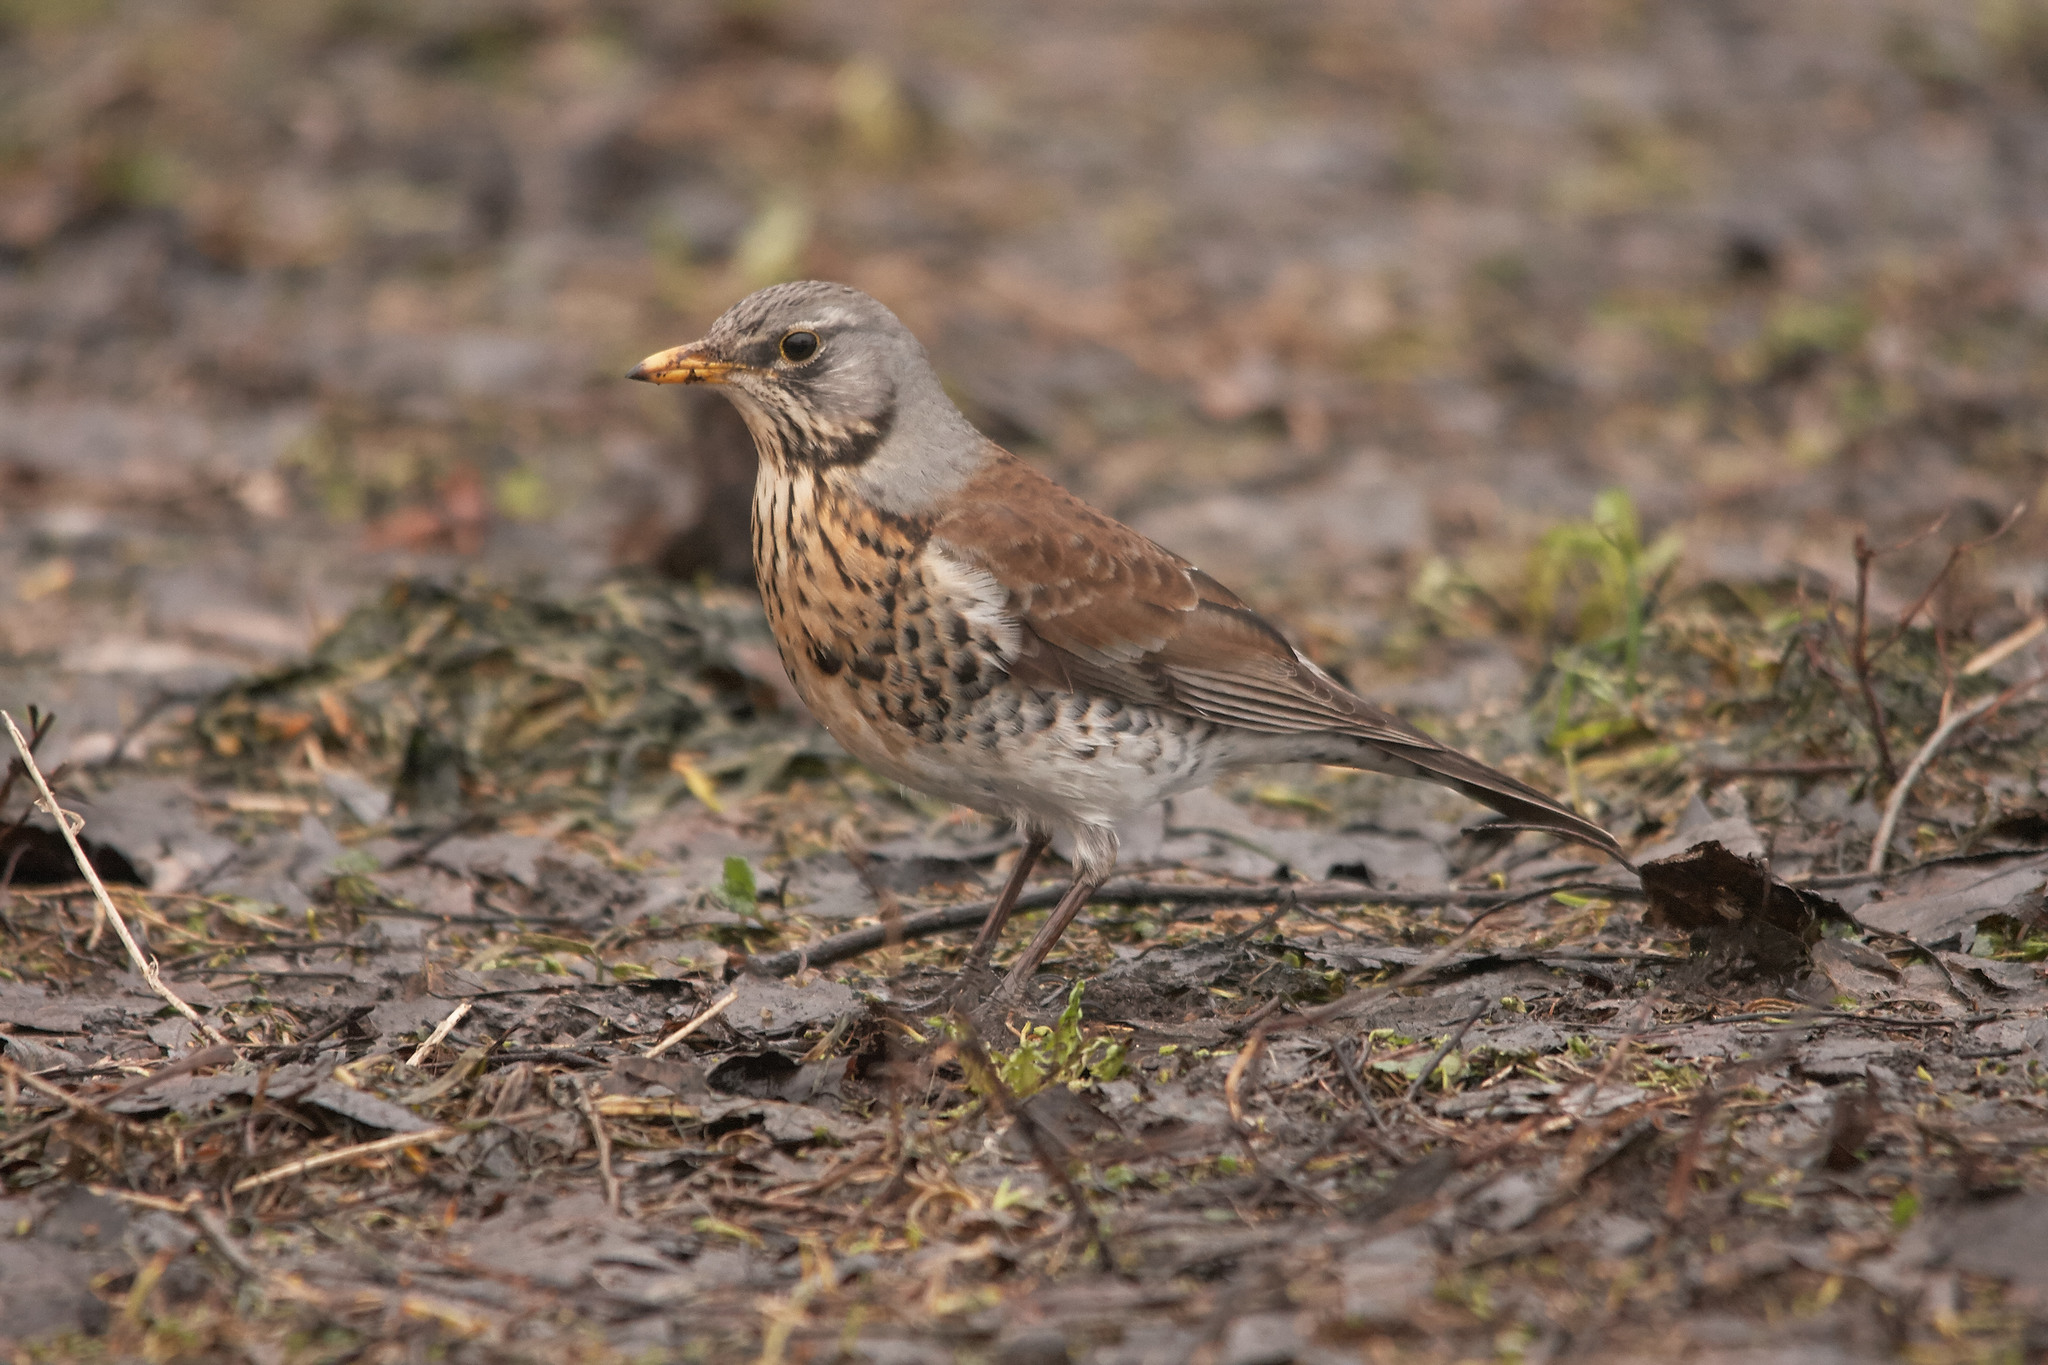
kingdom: Animalia
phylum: Chordata
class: Aves
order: Passeriformes
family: Turdidae
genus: Turdus
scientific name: Turdus pilaris
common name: Fieldfare
